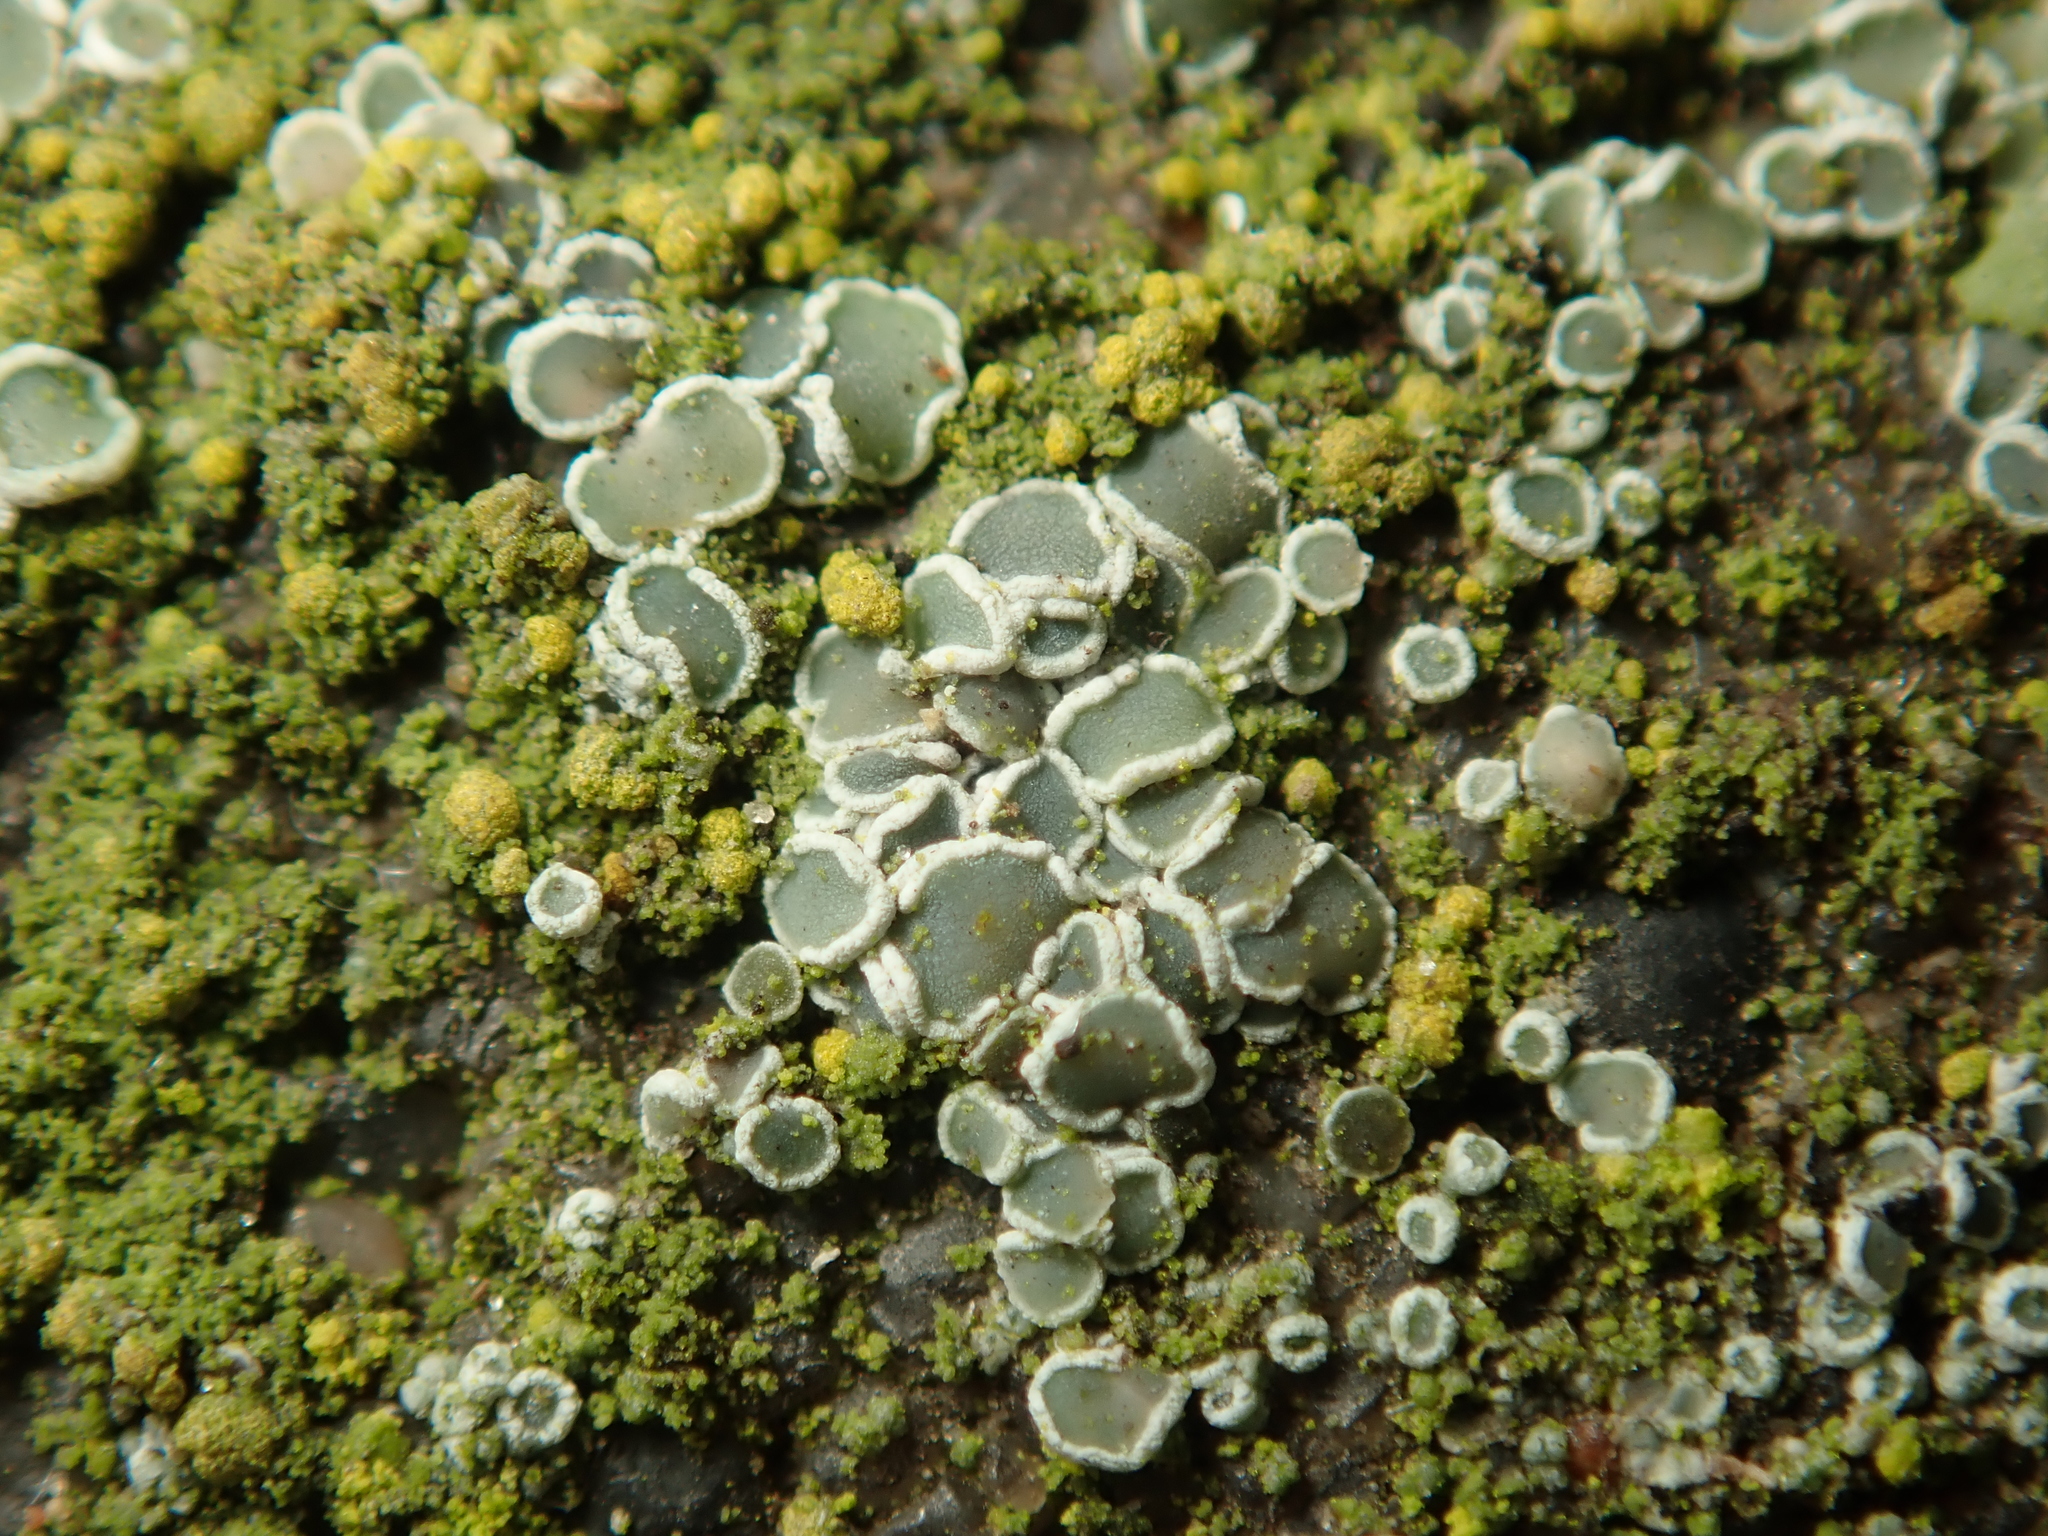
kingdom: Fungi
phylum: Ascomycota
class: Lecanoromycetes
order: Lecanorales
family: Lecanoraceae
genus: Myriolecis
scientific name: Myriolecis
